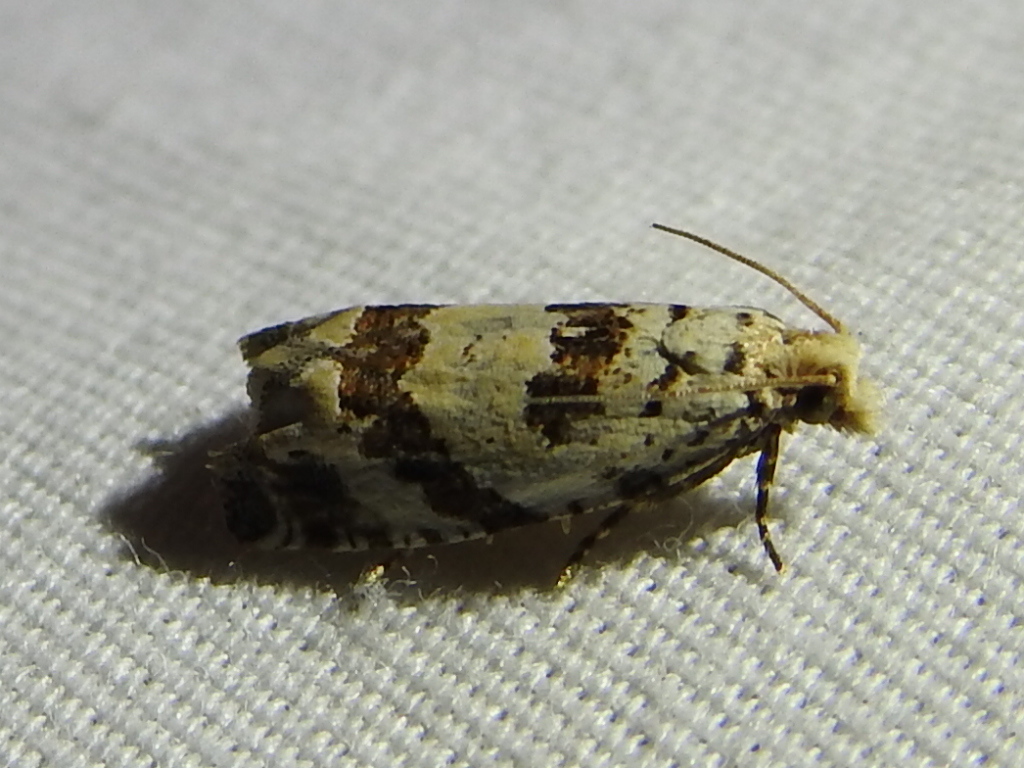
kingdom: Animalia
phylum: Arthropoda
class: Insecta
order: Lepidoptera
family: Tortricidae
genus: Pelochrista
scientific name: Pelochrista matutina
